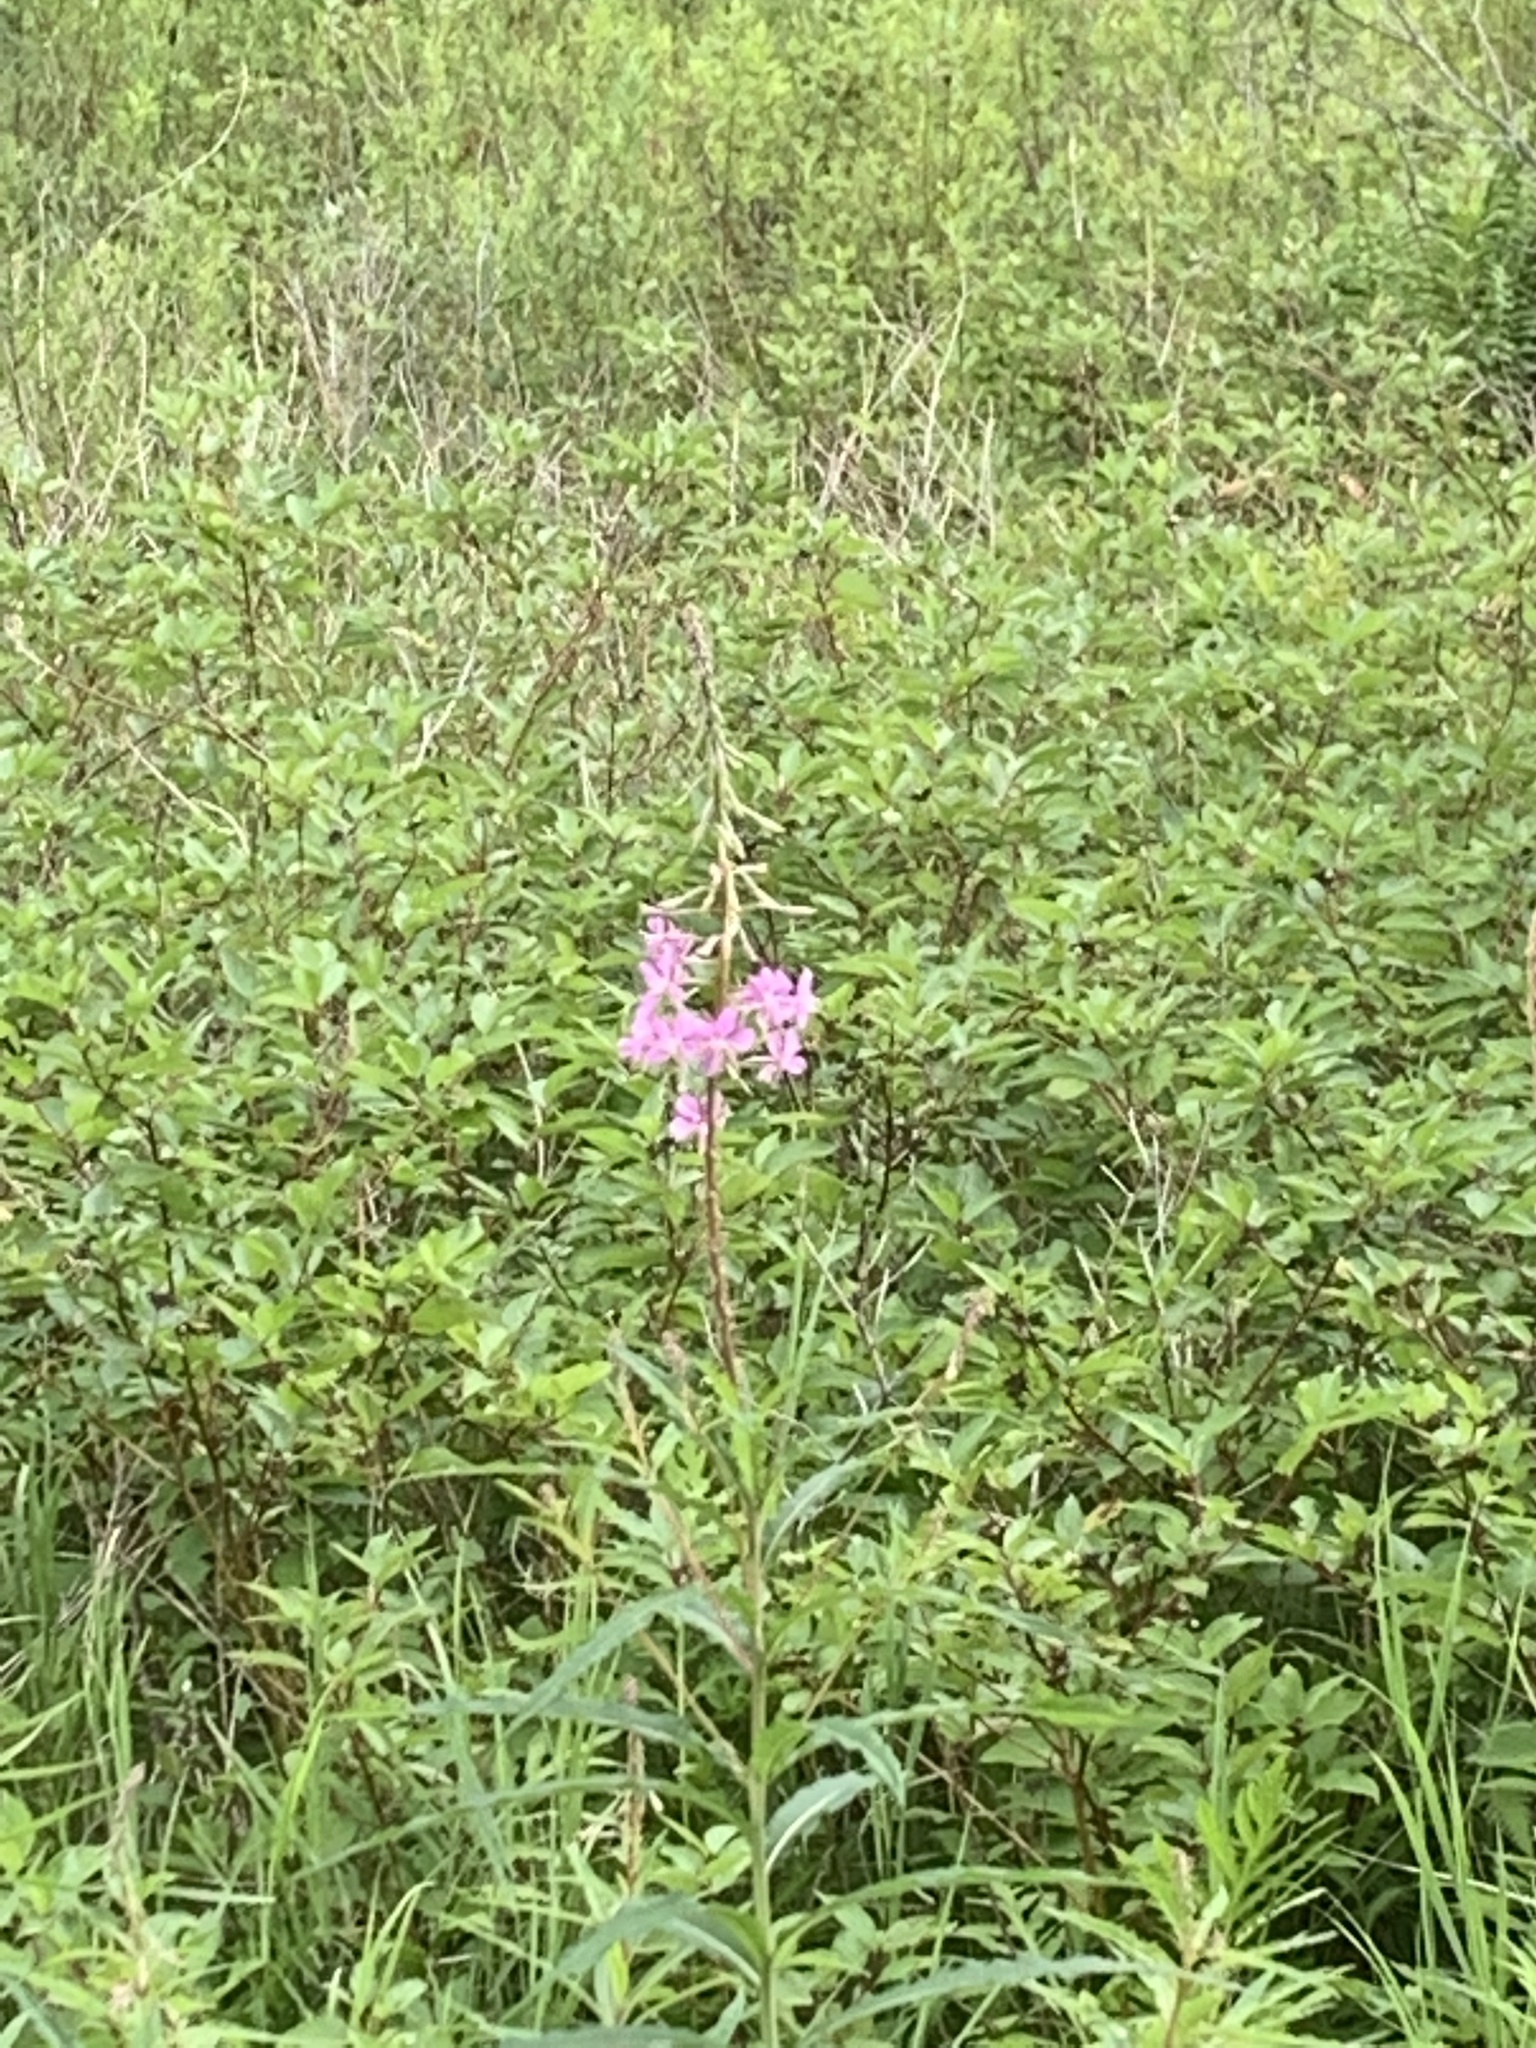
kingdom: Plantae
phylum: Tracheophyta
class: Magnoliopsida
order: Myrtales
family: Onagraceae
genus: Chamaenerion
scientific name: Chamaenerion angustifolium
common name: Fireweed
